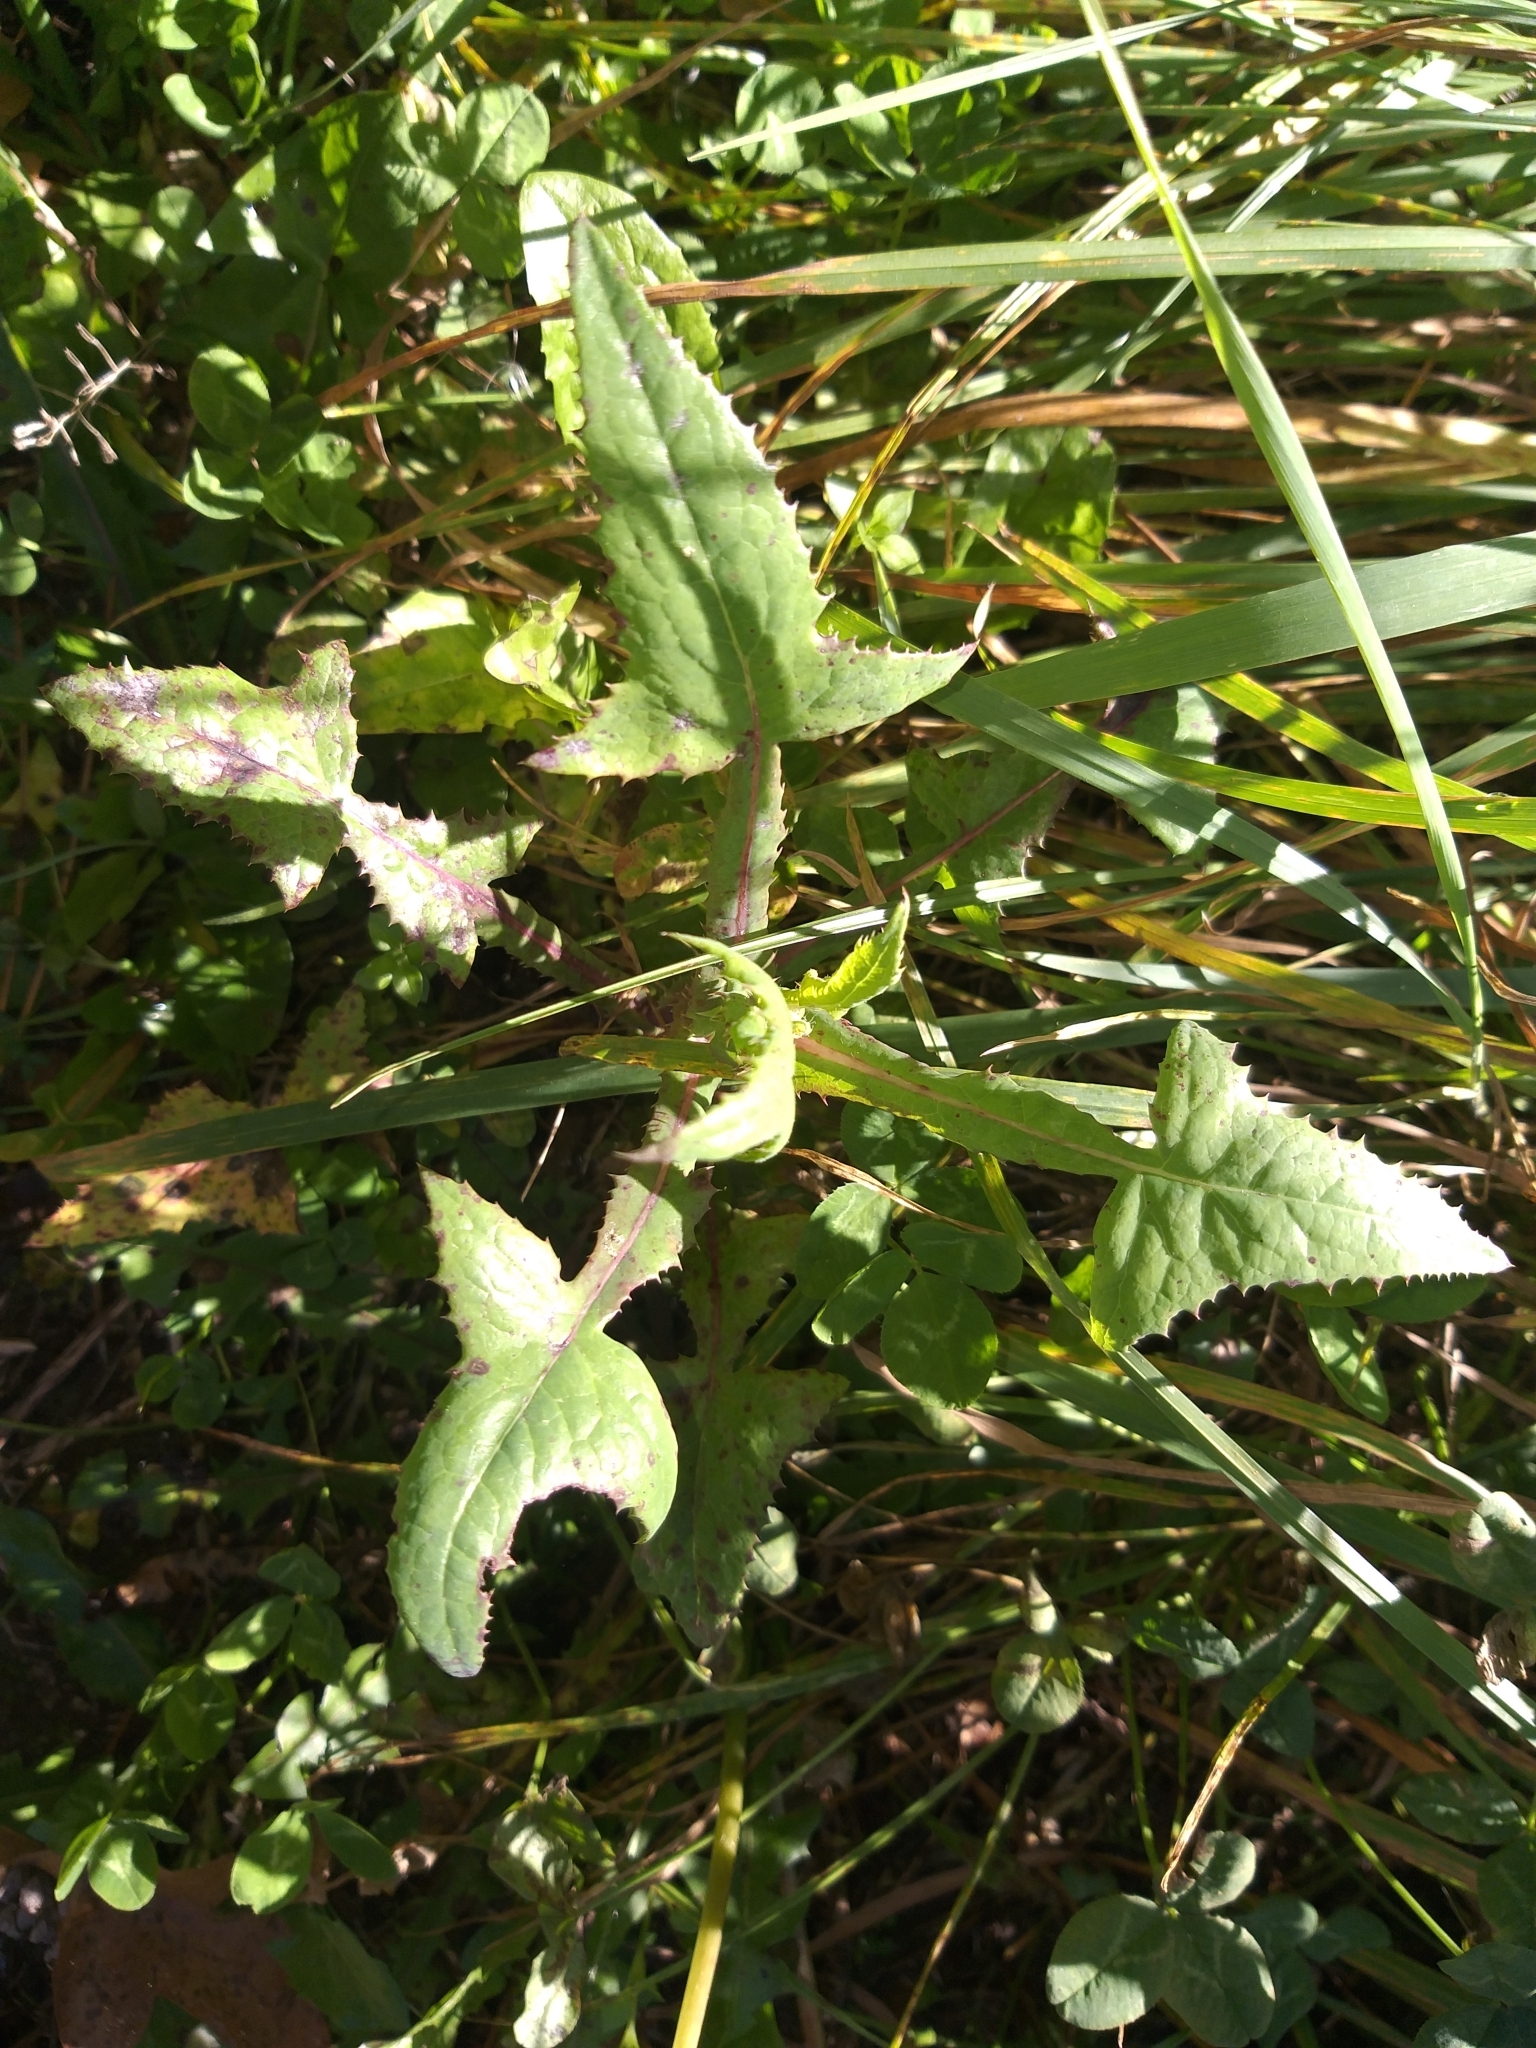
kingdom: Plantae
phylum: Tracheophyta
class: Magnoliopsida
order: Asterales
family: Asteraceae
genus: Sonchus
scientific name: Sonchus oleraceus
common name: Common sowthistle
